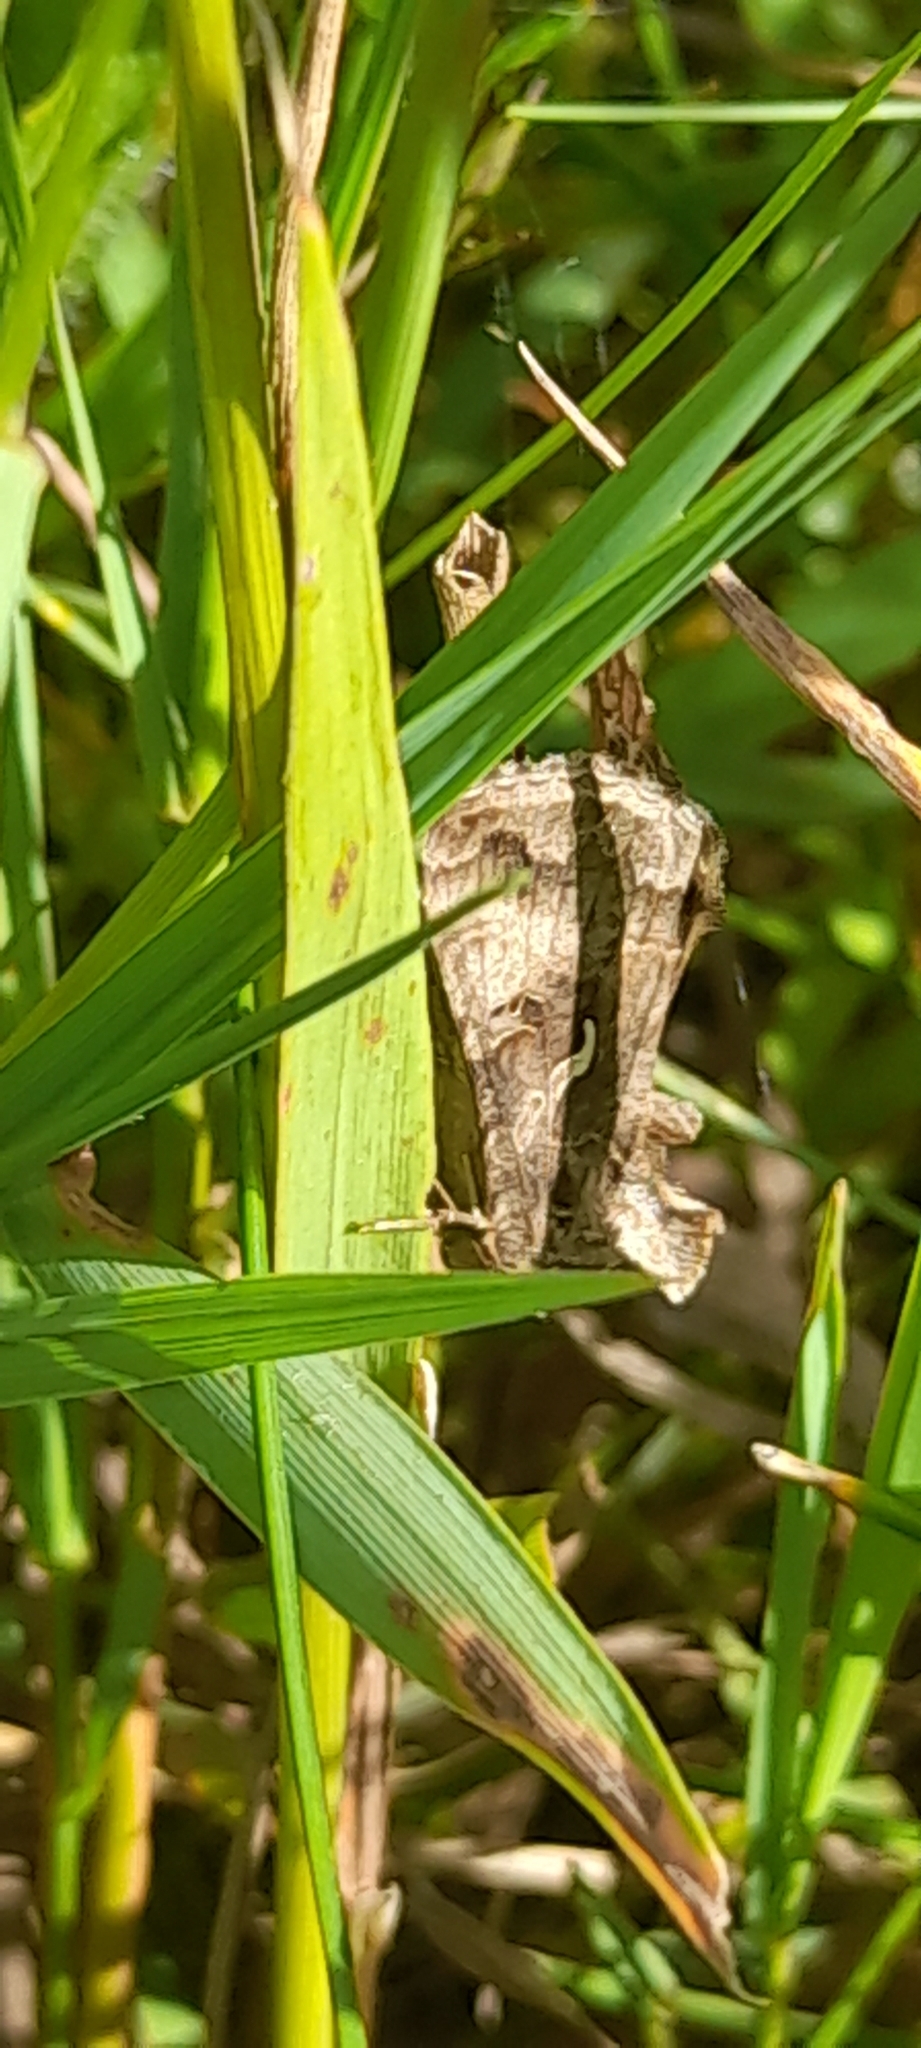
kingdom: Animalia
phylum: Arthropoda
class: Insecta
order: Lepidoptera
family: Noctuidae
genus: Autographa
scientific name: Autographa gamma
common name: Silver y
